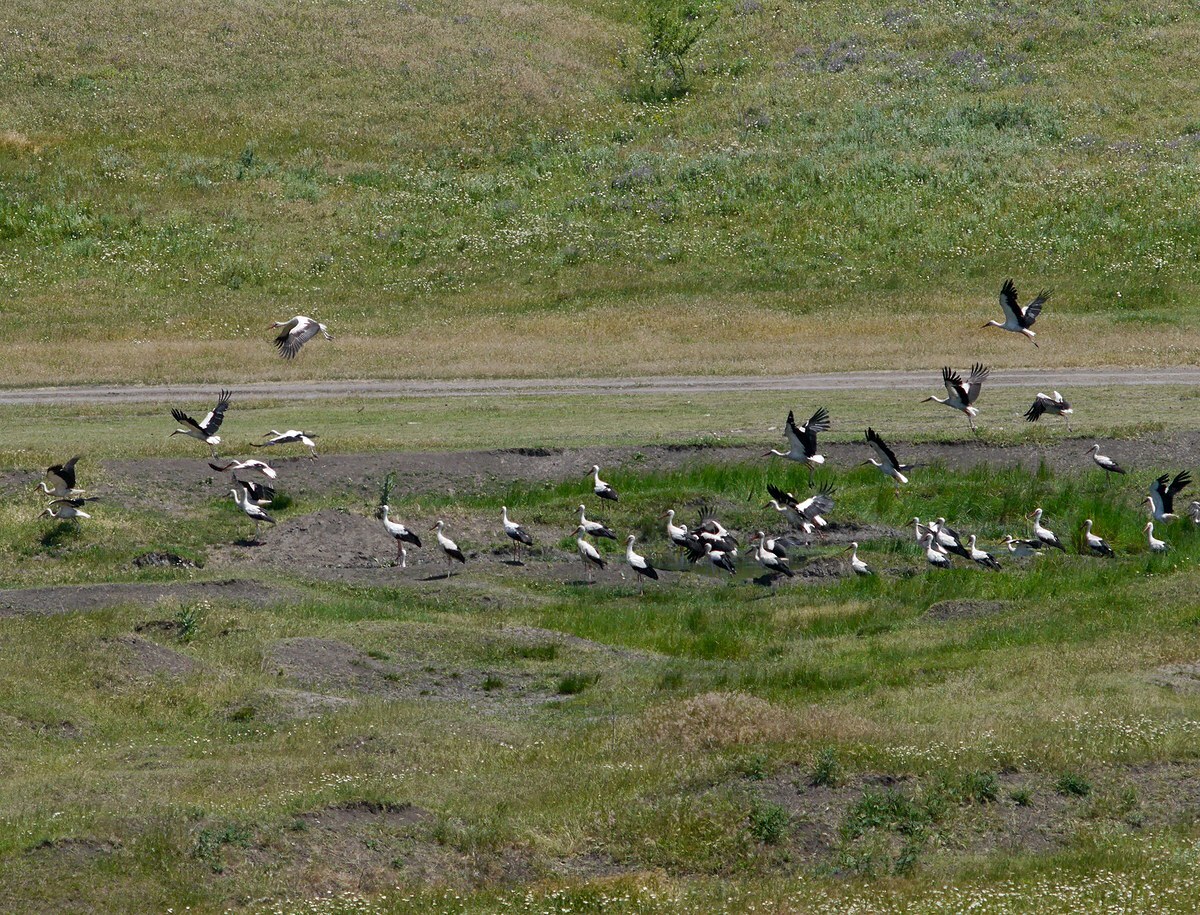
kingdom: Animalia
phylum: Chordata
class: Aves
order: Ciconiiformes
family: Ciconiidae
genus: Ciconia
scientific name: Ciconia ciconia
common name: White stork
